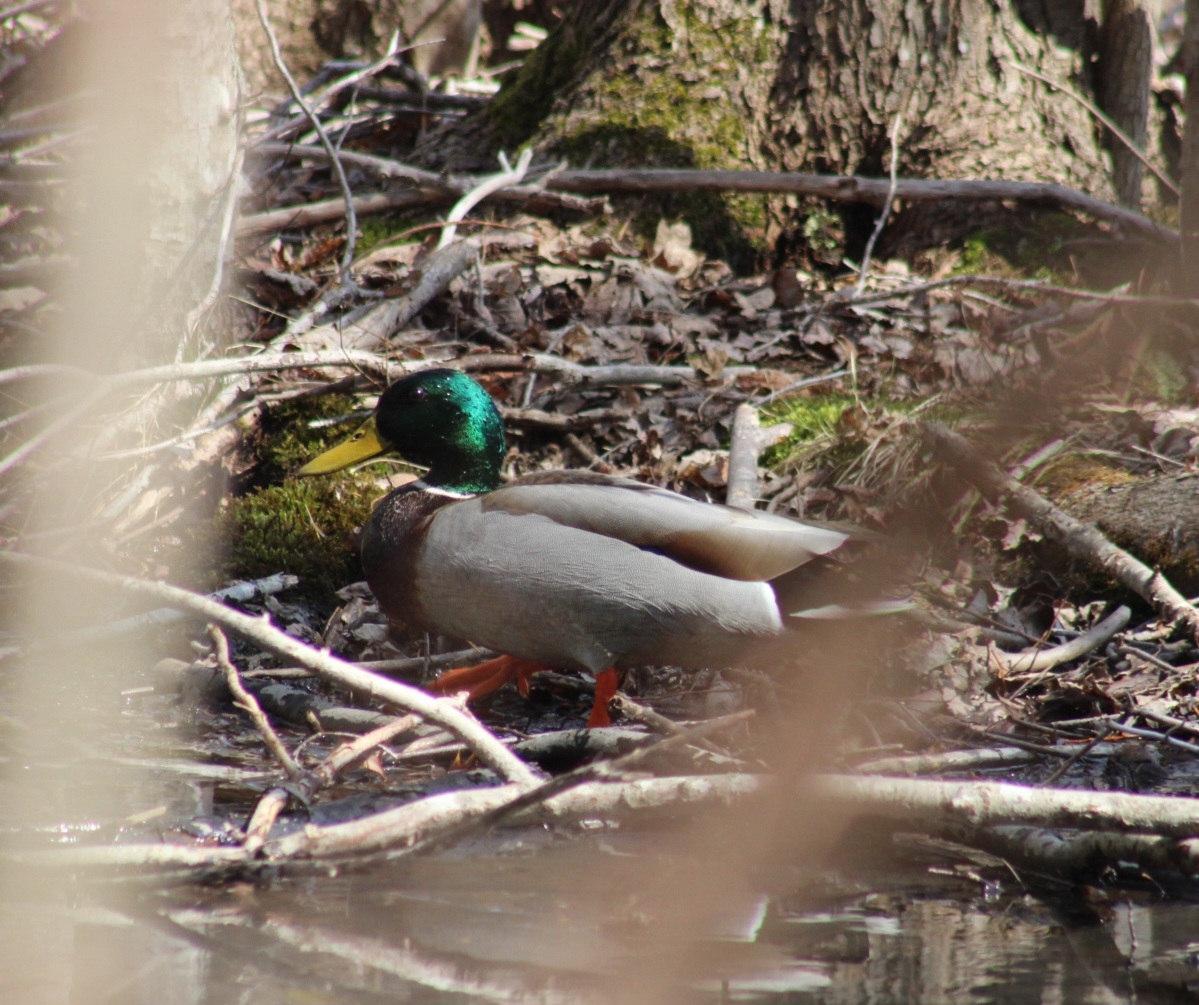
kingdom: Animalia
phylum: Chordata
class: Aves
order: Anseriformes
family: Anatidae
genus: Anas
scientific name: Anas platyrhynchos
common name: Mallard
